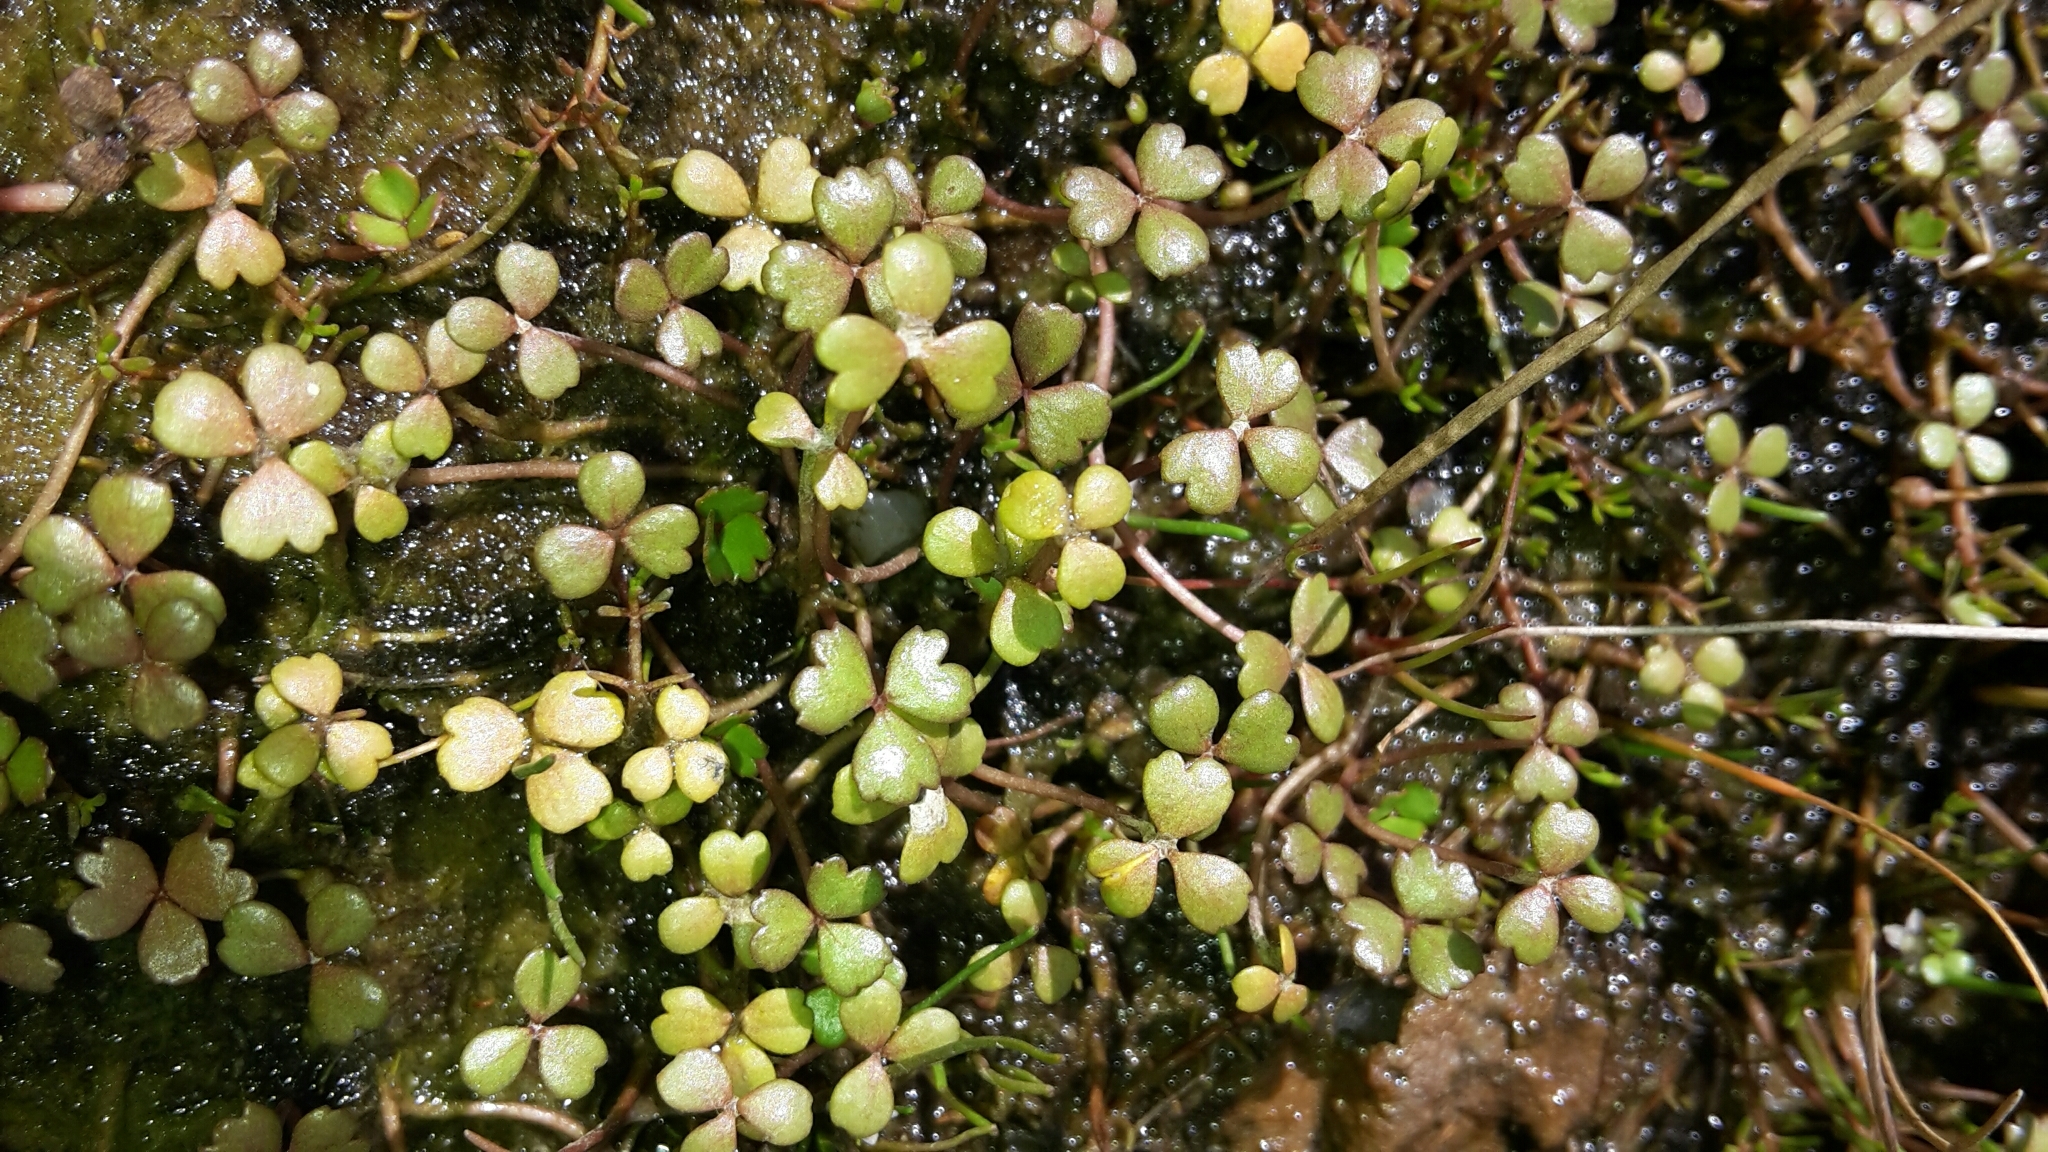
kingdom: Plantae
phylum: Tracheophyta
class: Magnoliopsida
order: Apiales
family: Araliaceae
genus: Hydrocotyle
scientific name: Hydrocotyle sulcata
